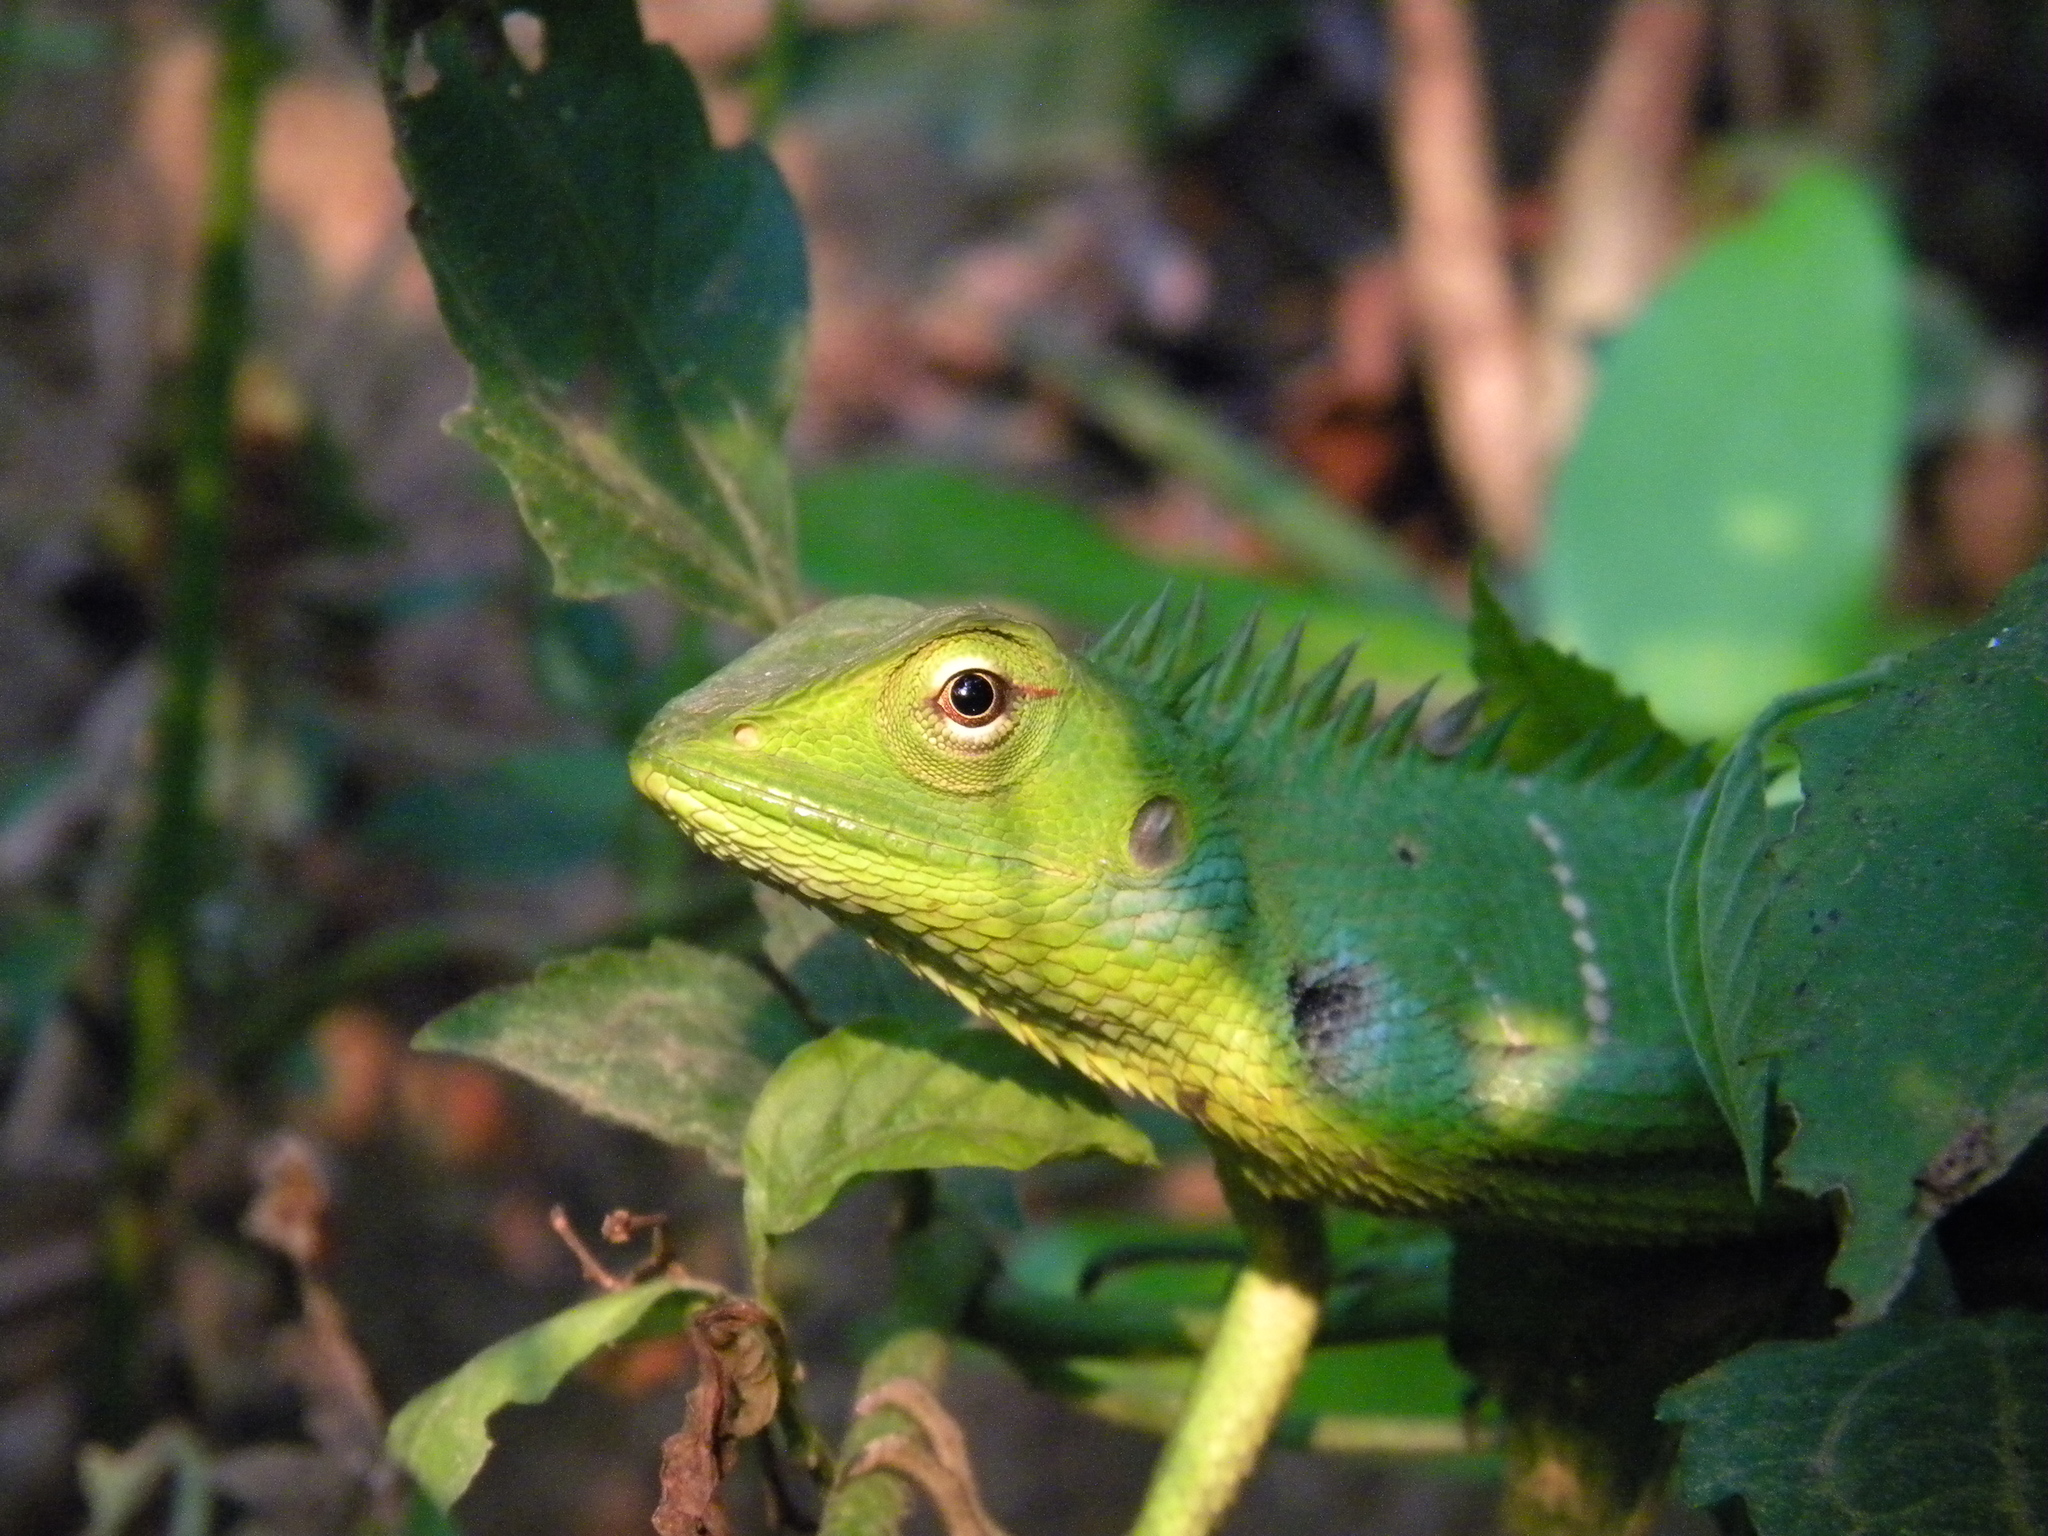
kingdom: Animalia
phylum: Chordata
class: Squamata
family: Agamidae
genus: Calotes
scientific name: Calotes calotes
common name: Common green forest lizard
